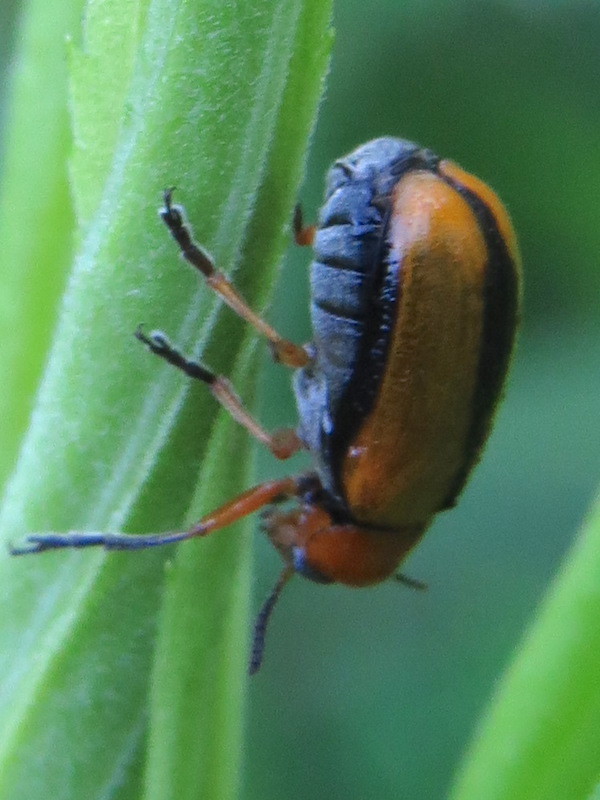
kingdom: Animalia
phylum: Arthropoda
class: Insecta
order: Coleoptera
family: Chrysomelidae
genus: Anomoea
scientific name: Anomoea laticlavia
